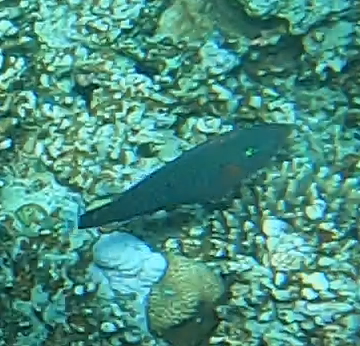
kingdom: Animalia
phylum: Chordata
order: Perciformes
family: Scaridae
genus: Scarus
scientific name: Scarus niger
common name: Dusky parrotfish
